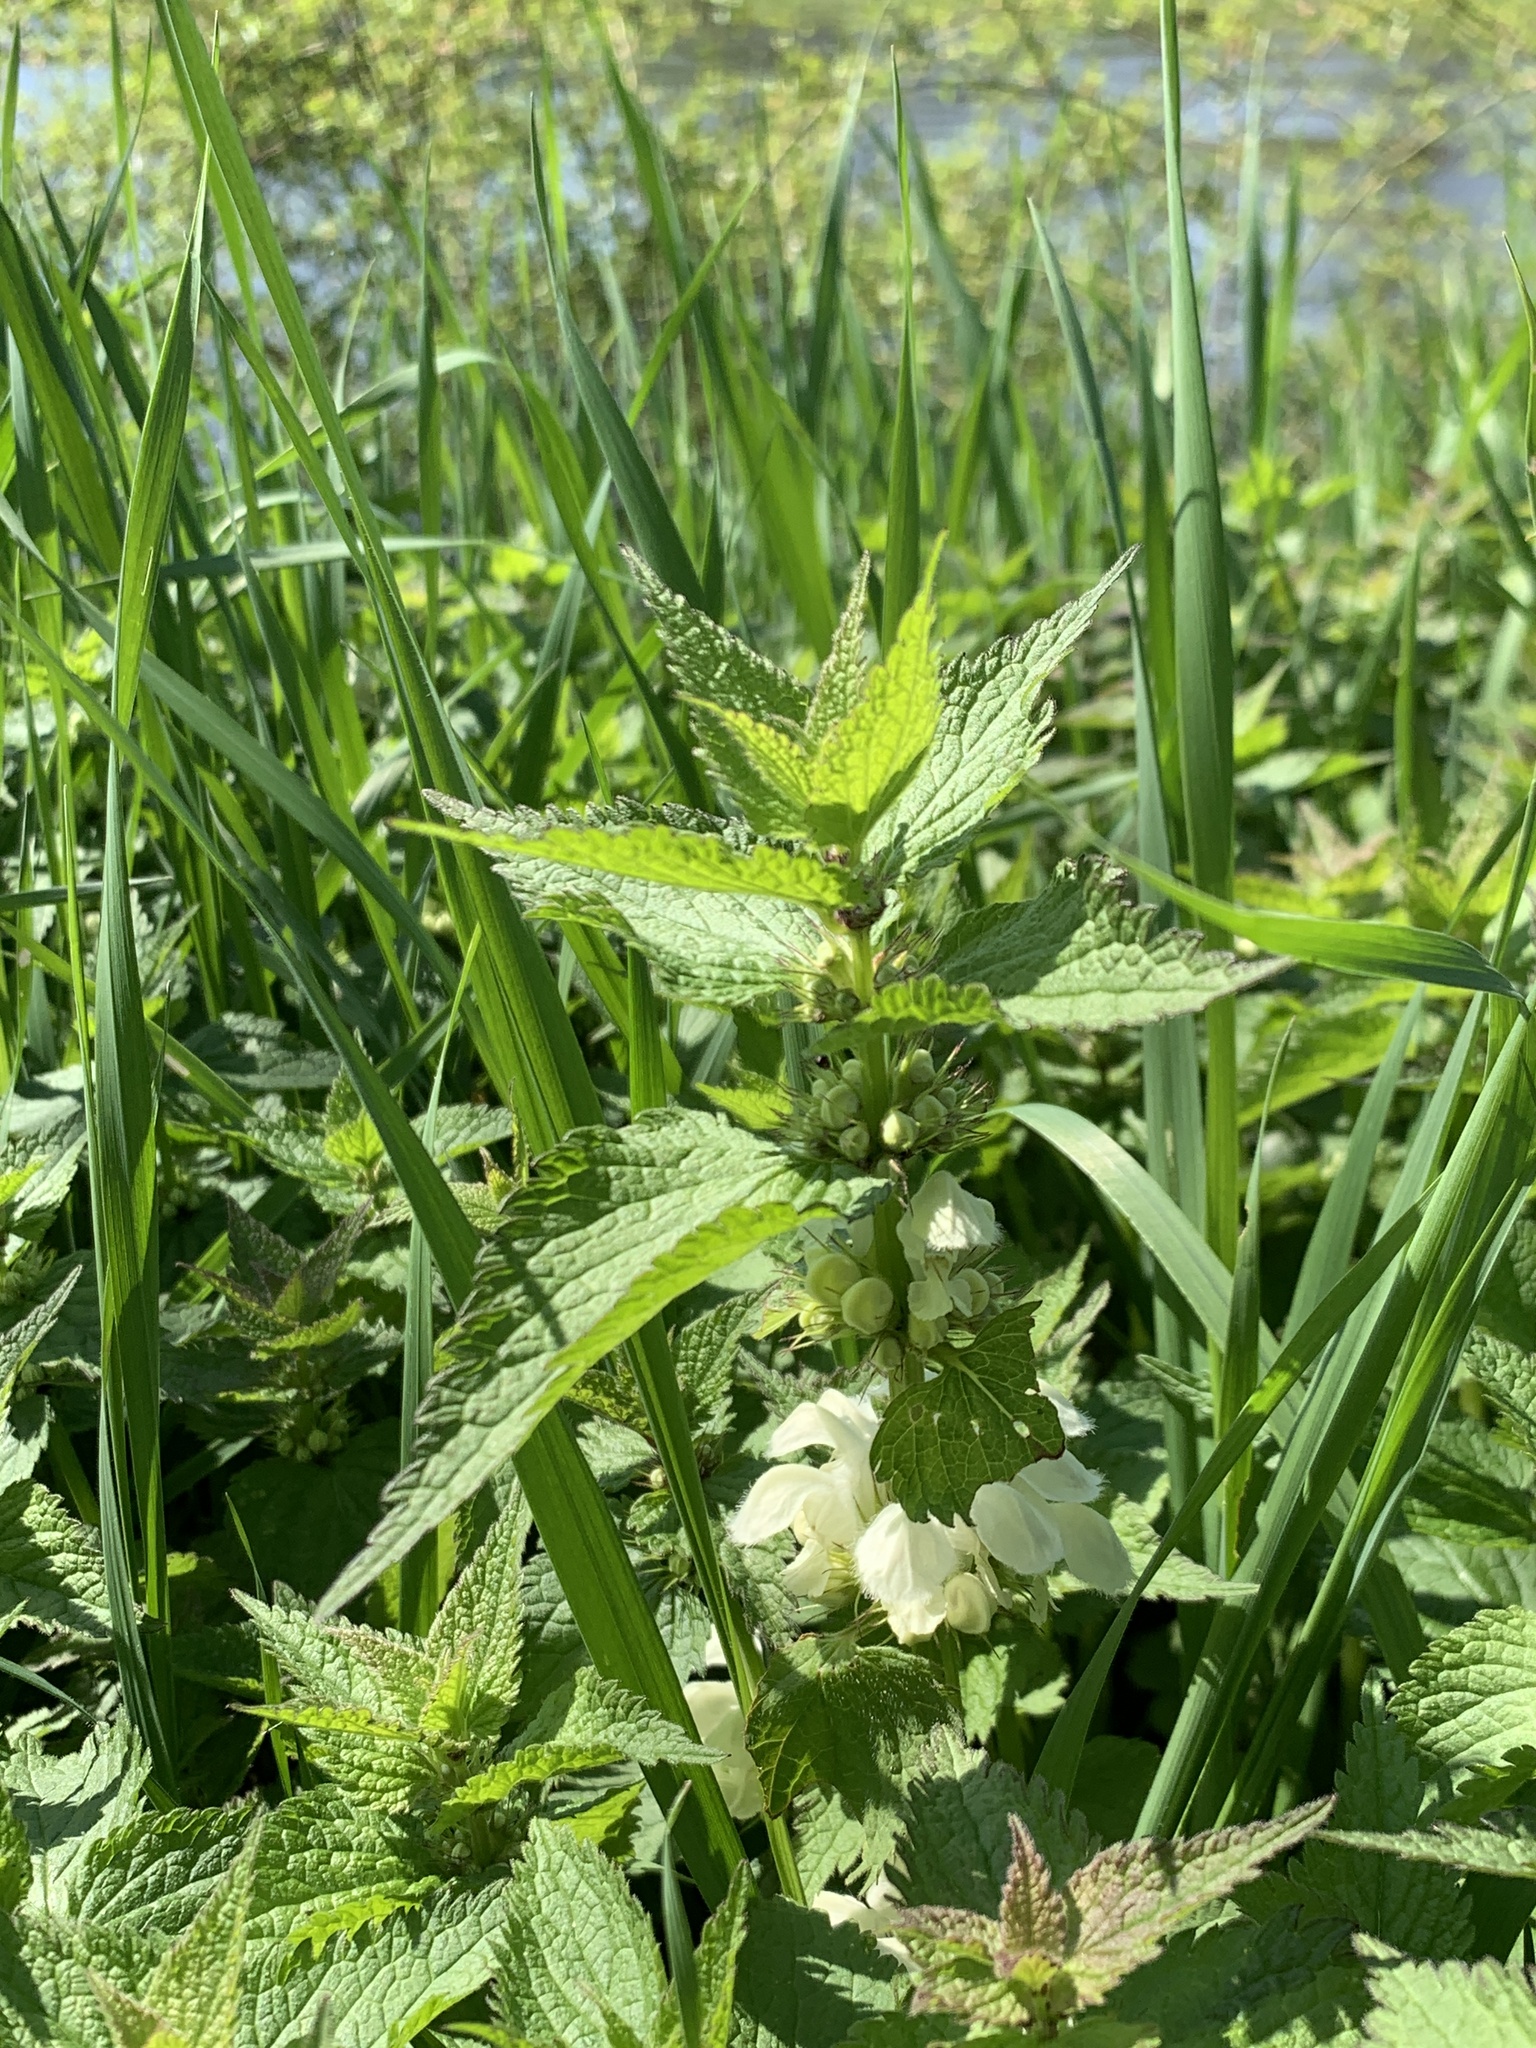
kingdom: Plantae
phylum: Tracheophyta
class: Magnoliopsida
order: Lamiales
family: Lamiaceae
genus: Lamium
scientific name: Lamium album
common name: White dead-nettle
